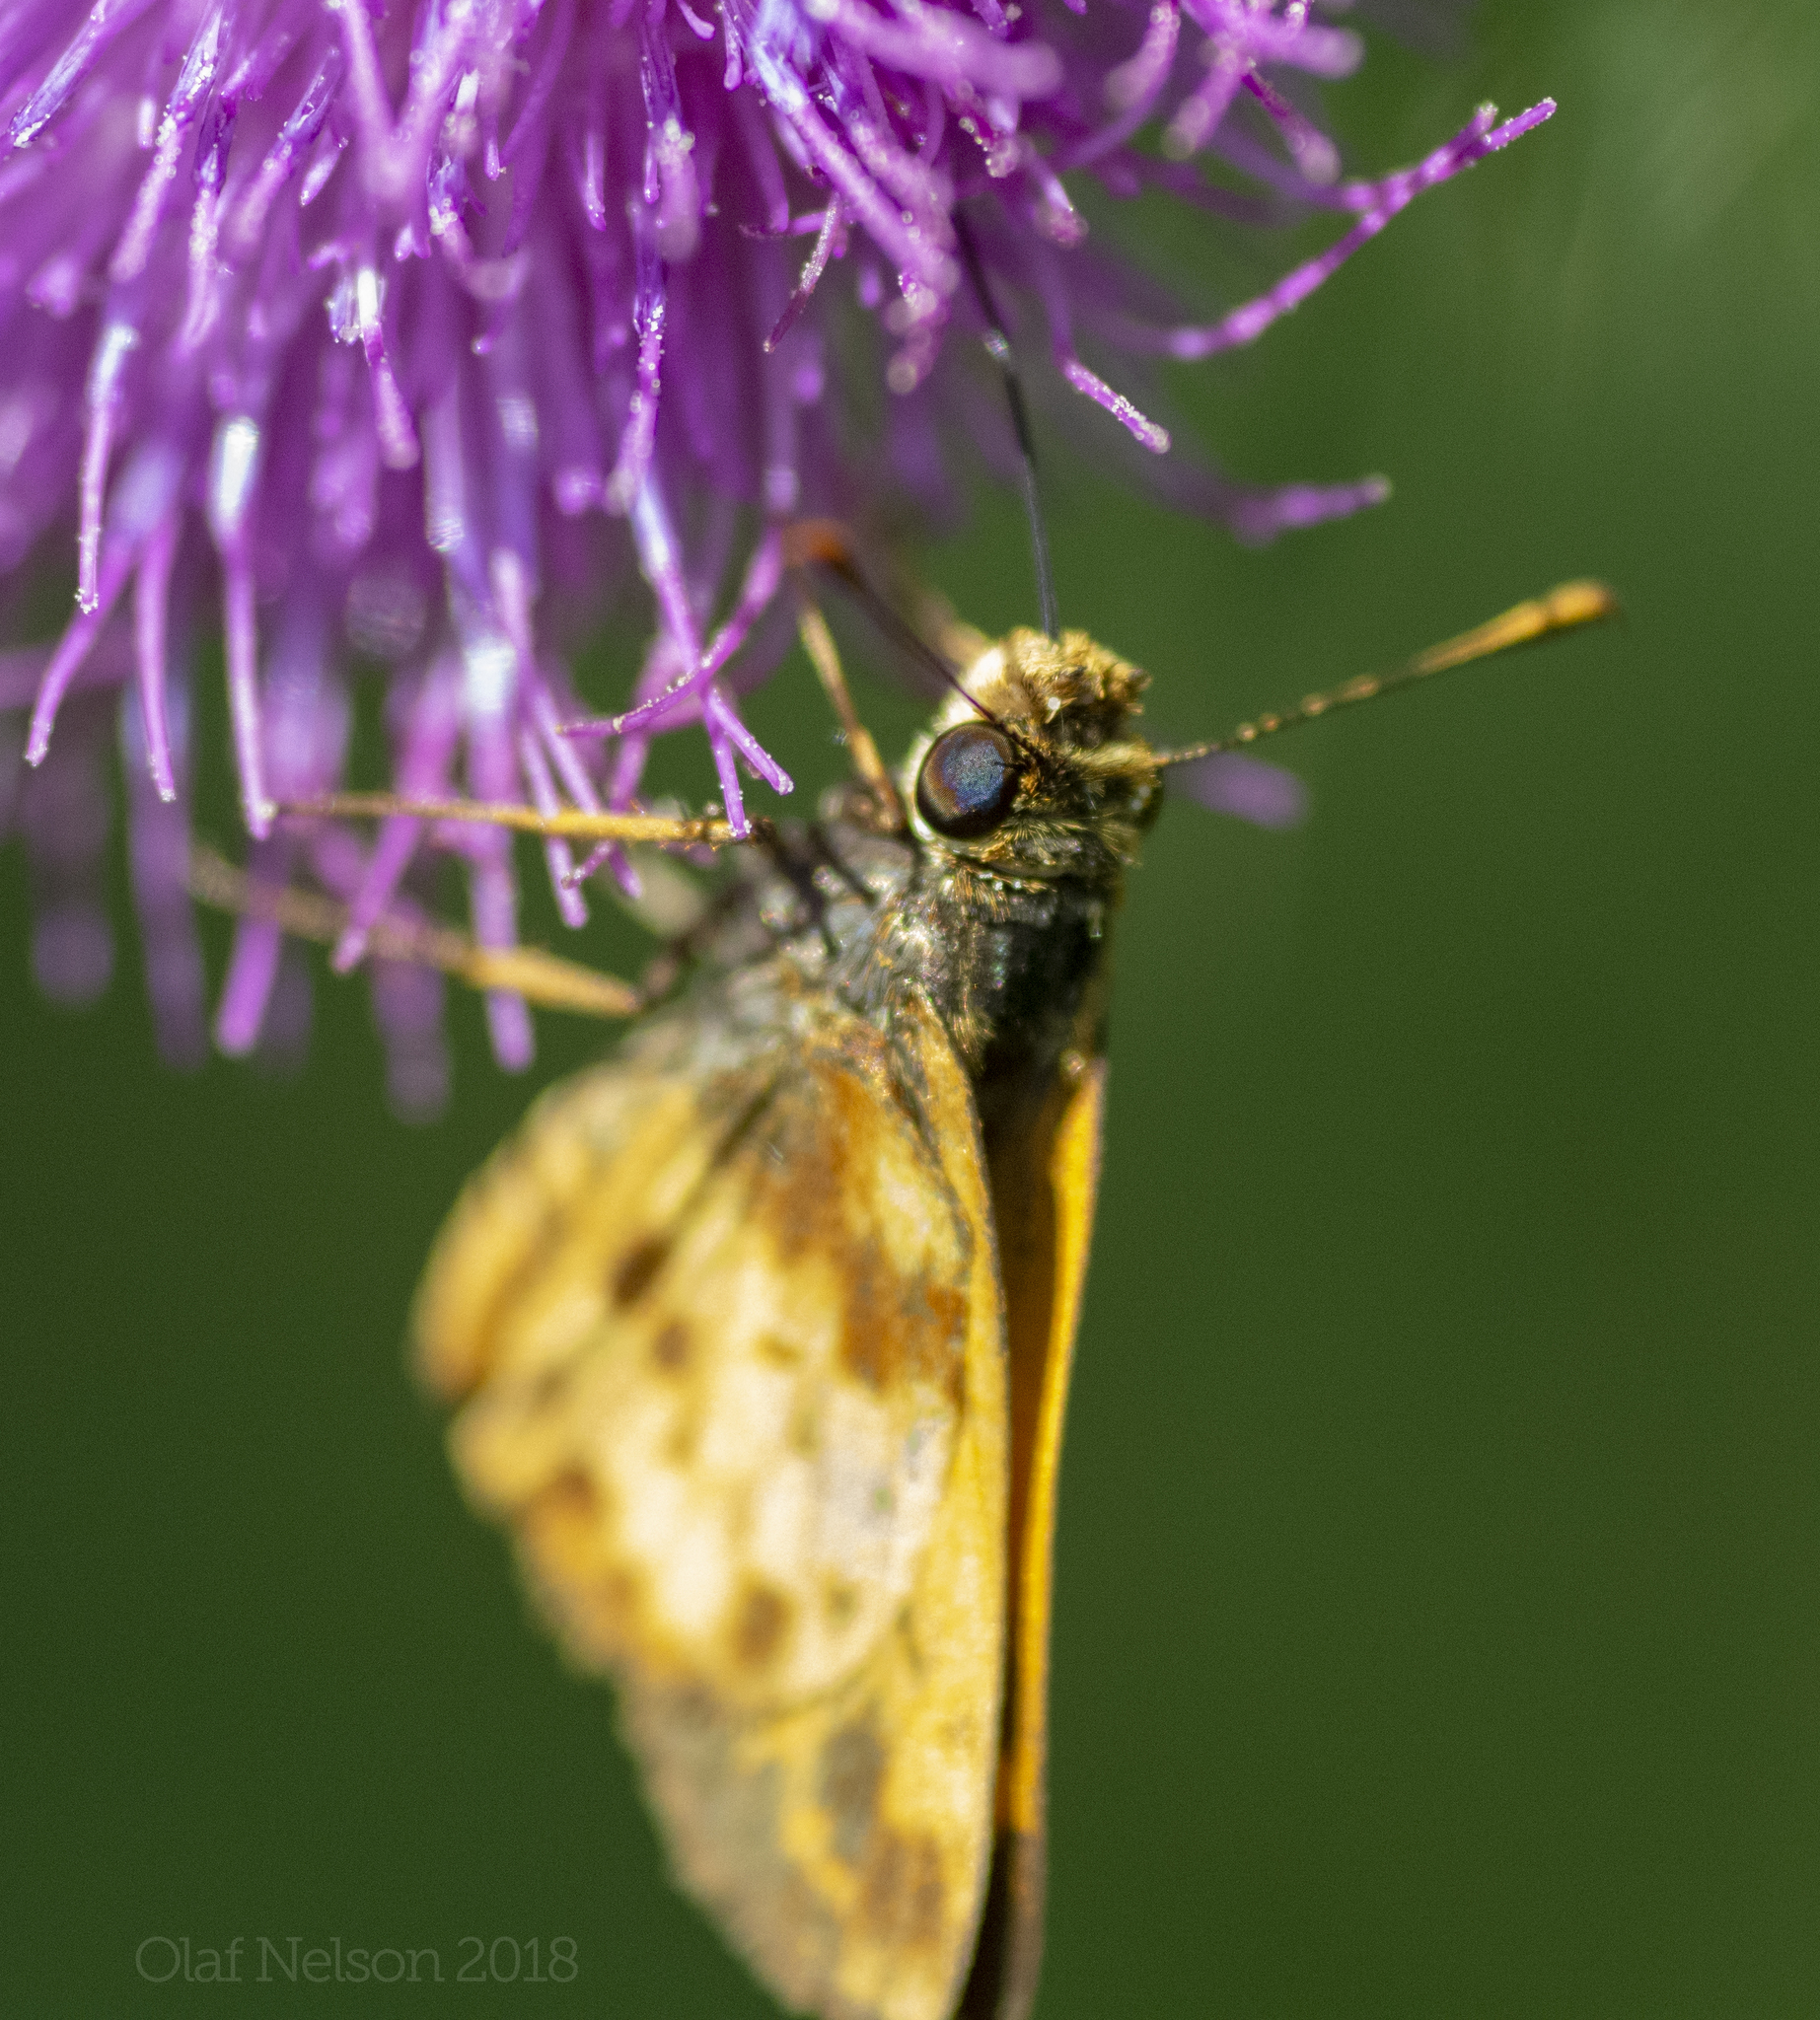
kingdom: Animalia
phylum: Arthropoda
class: Insecta
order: Lepidoptera
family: Hesperiidae
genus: Lon
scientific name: Lon zabulon
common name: Zabulon skipper
